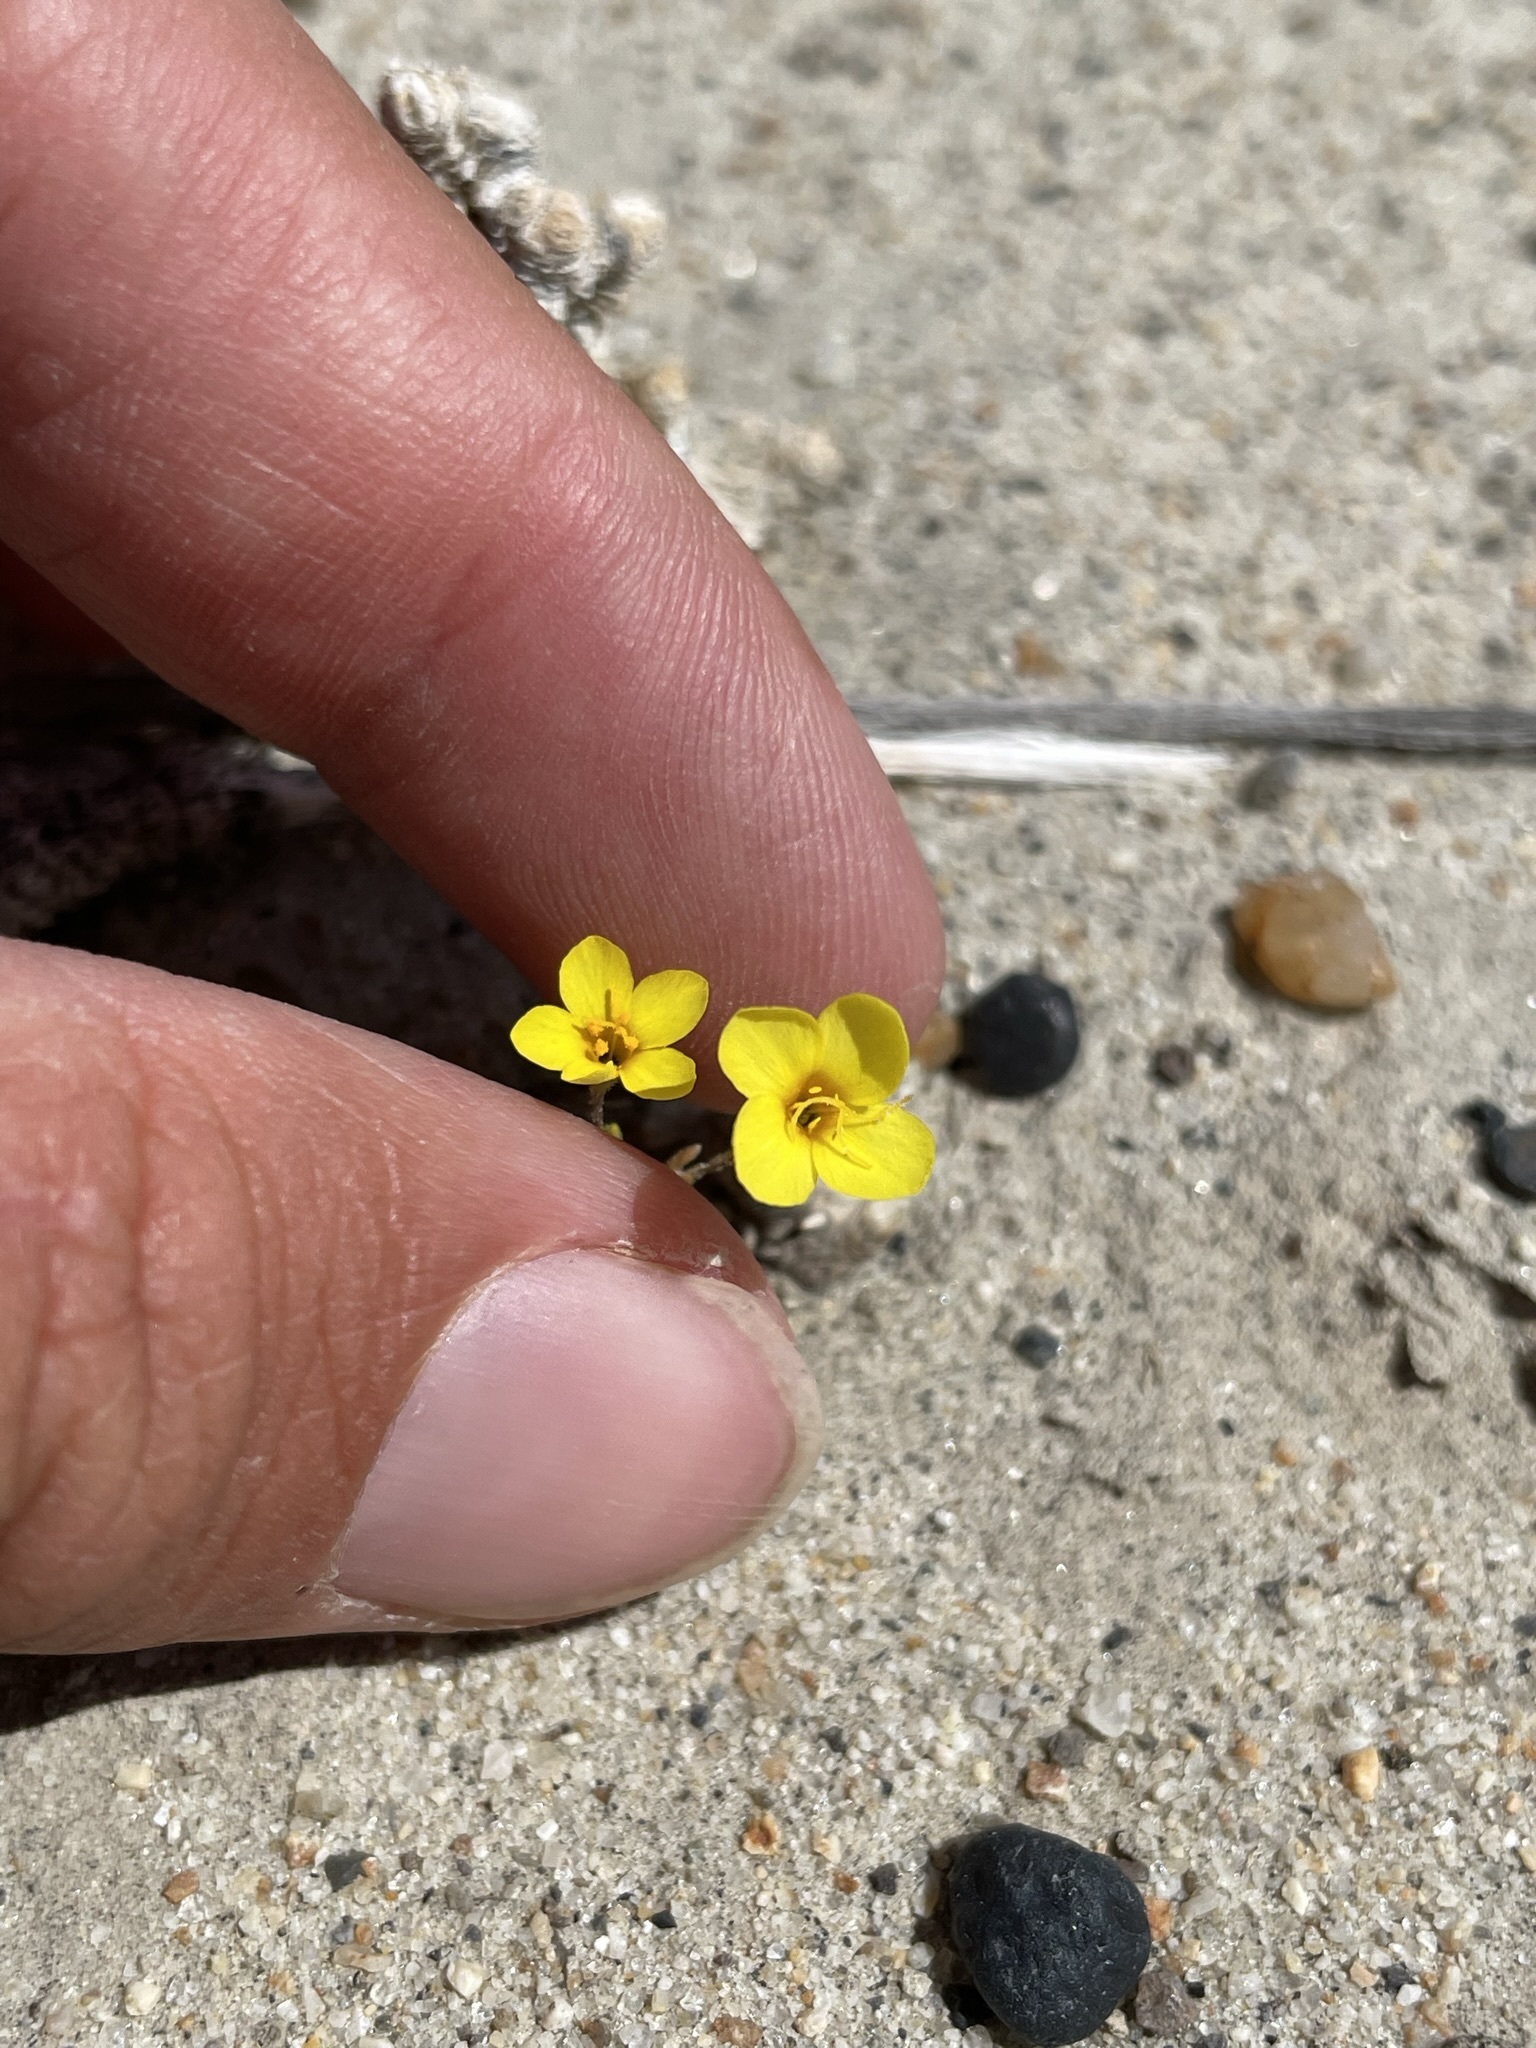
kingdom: Plantae
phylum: Tracheophyta
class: Magnoliopsida
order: Ericales
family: Polemoniaceae
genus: Leptosiphon
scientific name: Leptosiphon chrysanthus
